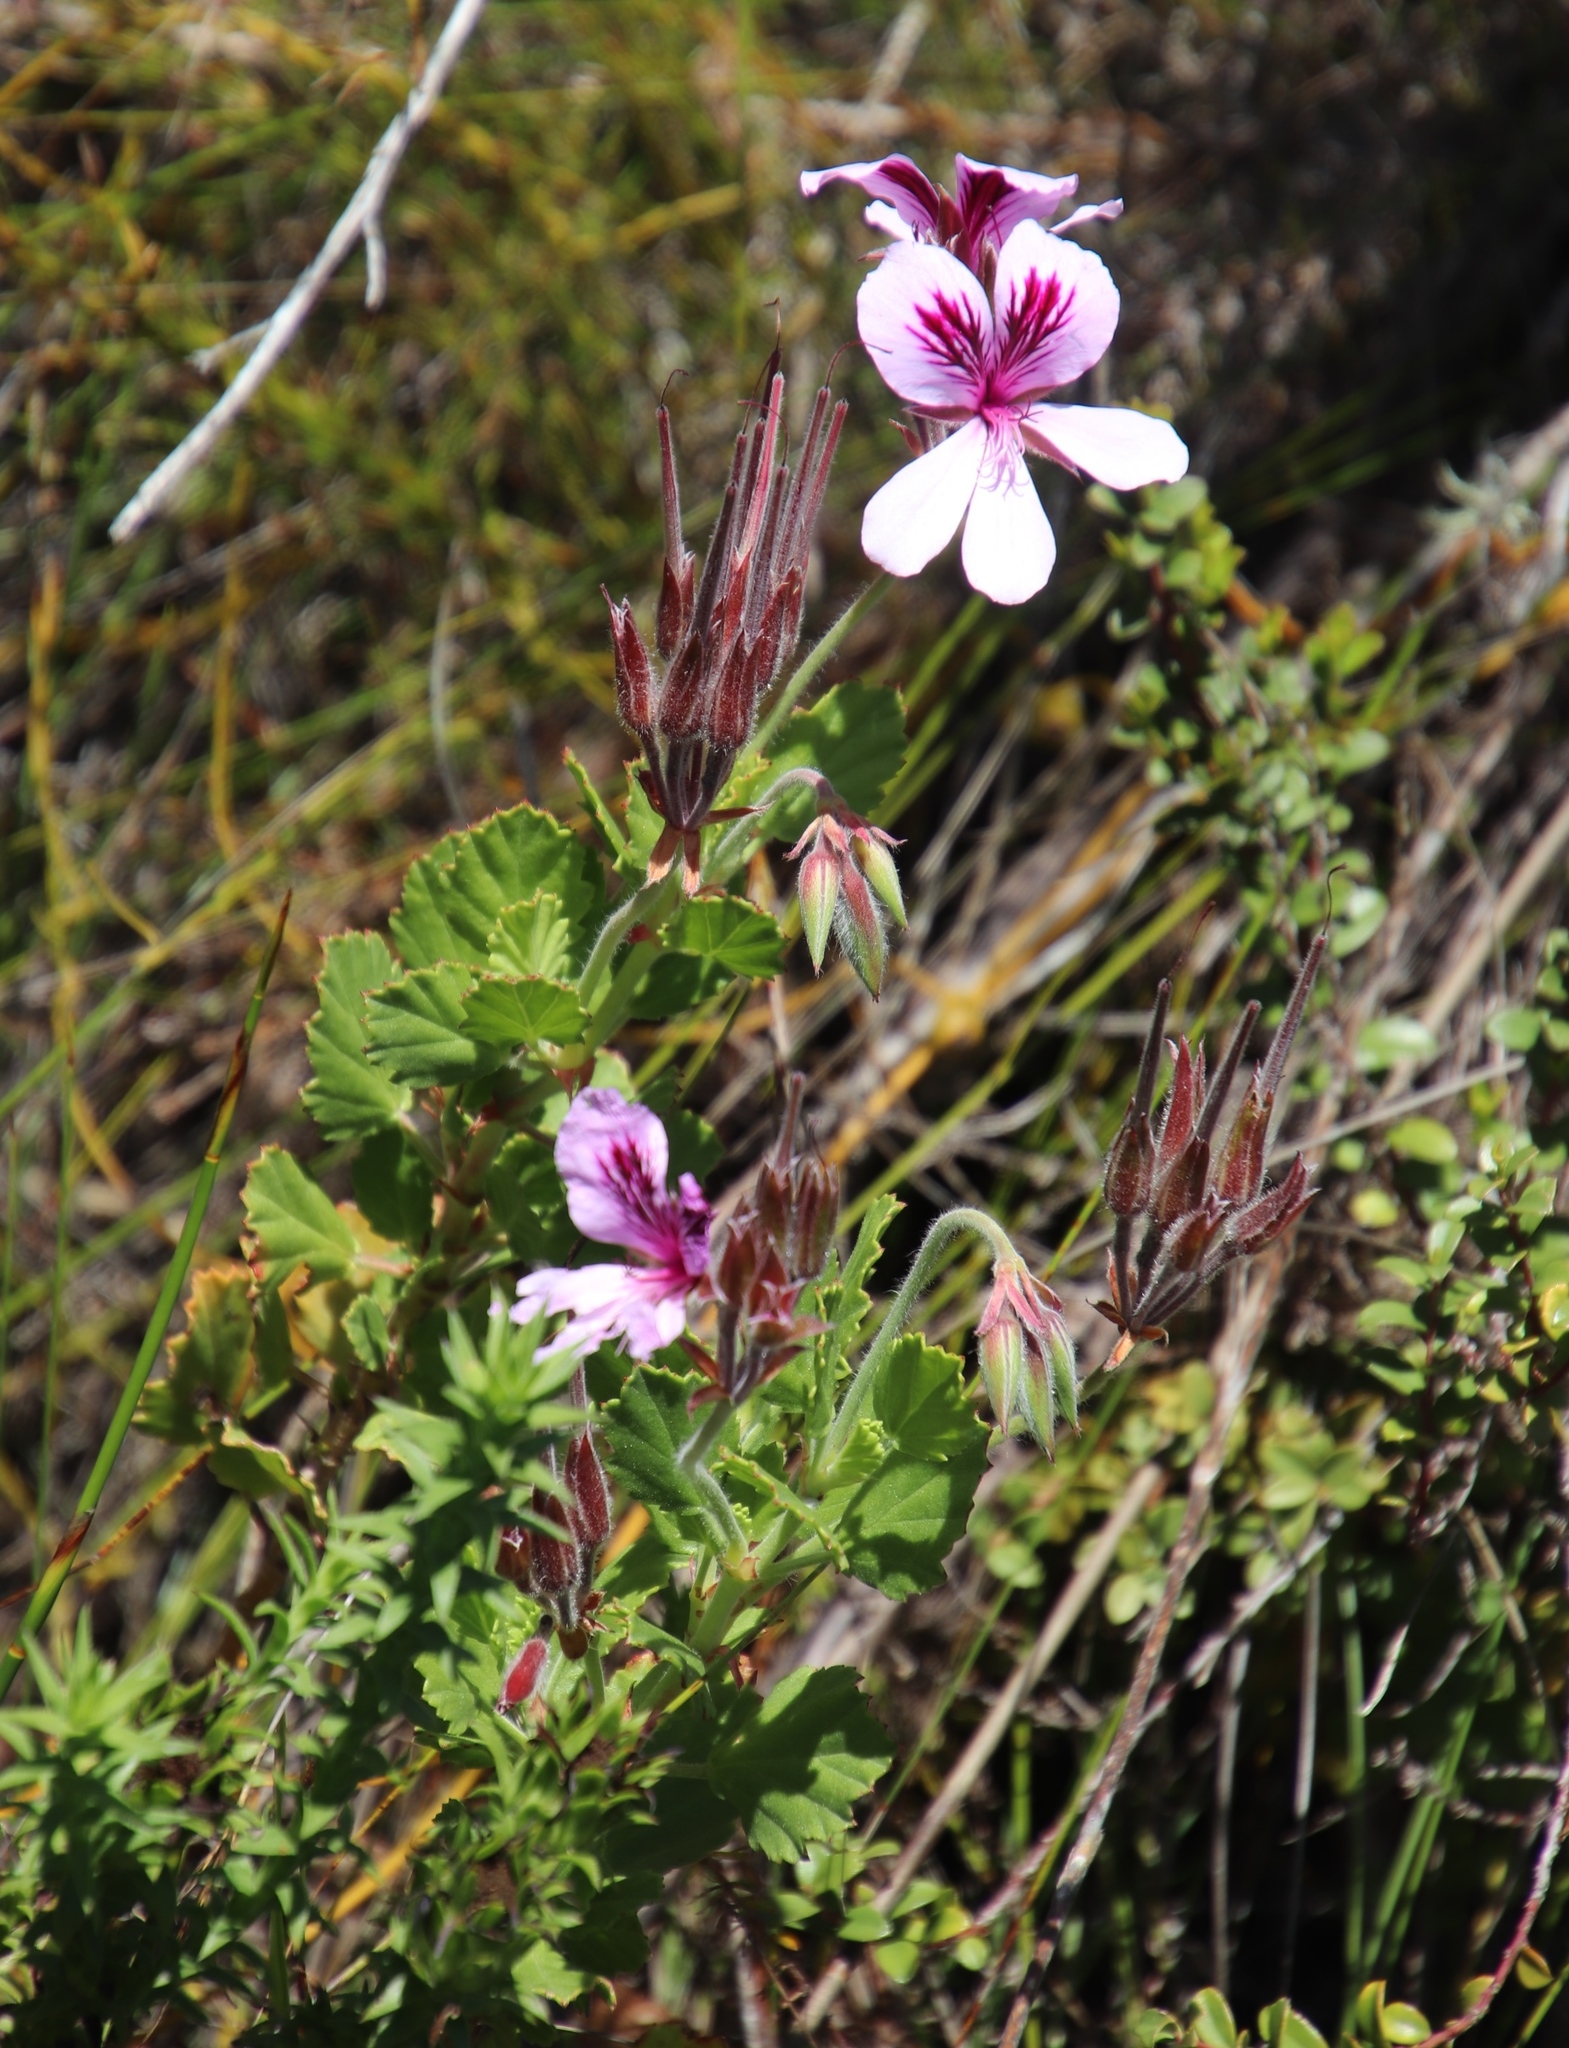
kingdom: Plantae
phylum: Tracheophyta
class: Magnoliopsida
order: Geraniales
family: Geraniaceae
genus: Pelargonium
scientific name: Pelargonium betulinum
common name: Birch-leaf pelargonium
